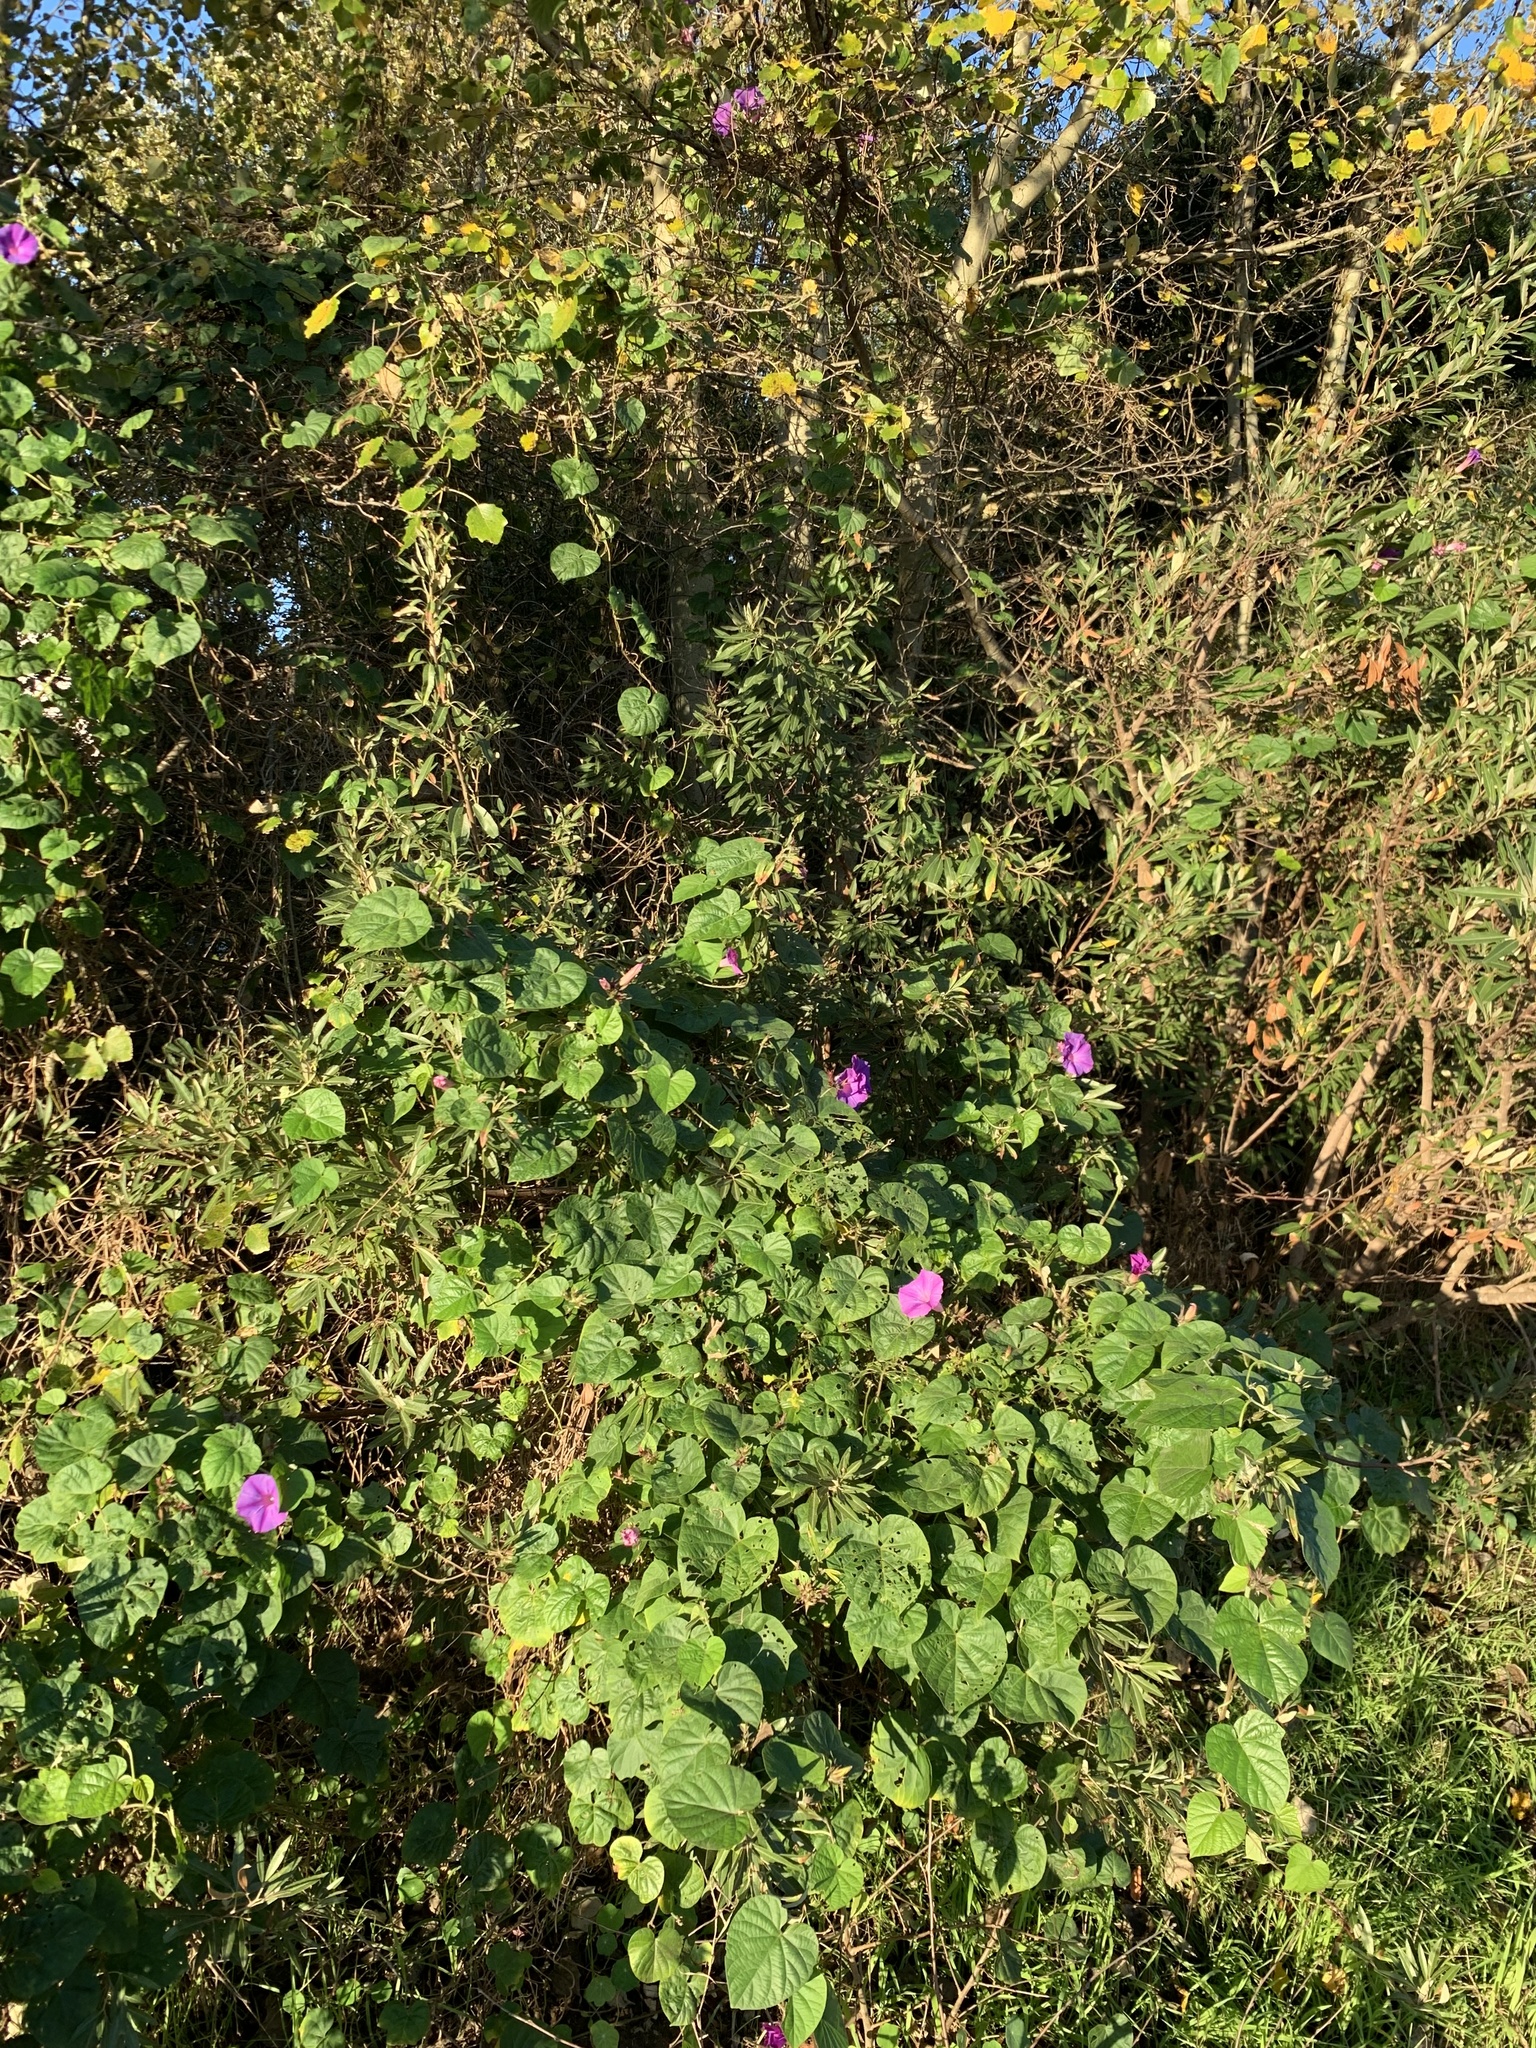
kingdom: Plantae
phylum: Tracheophyta
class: Magnoliopsida
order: Solanales
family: Convolvulaceae
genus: Ipomoea
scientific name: Ipomoea indica
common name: Blue dawnflower
